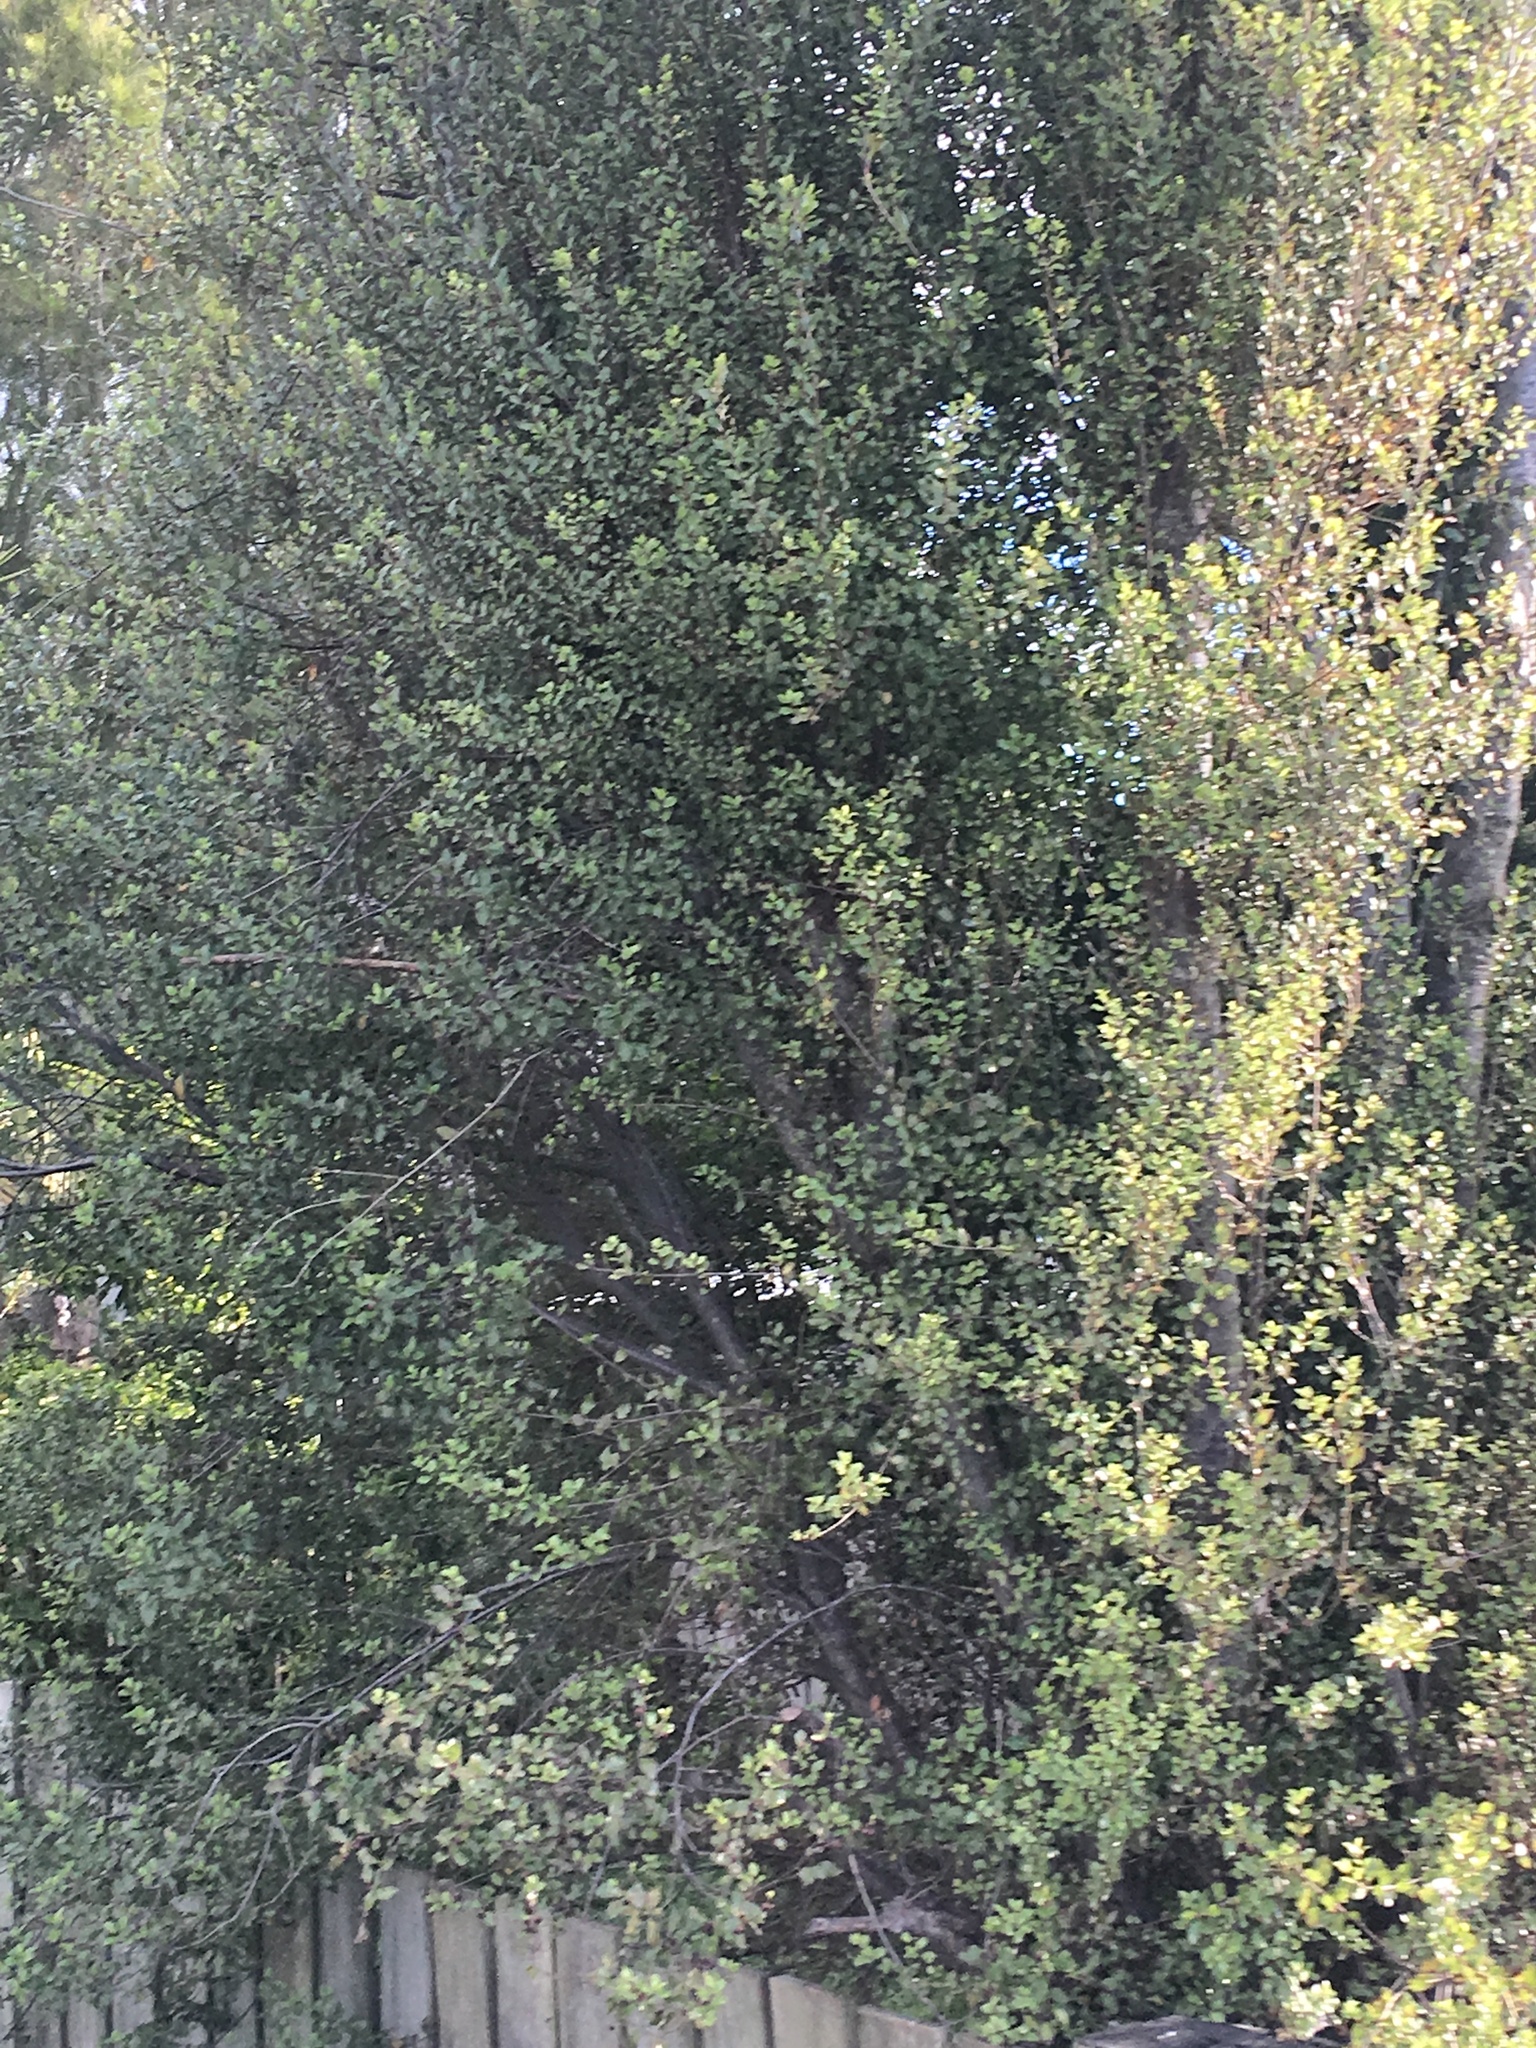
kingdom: Plantae
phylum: Tracheophyta
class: Magnoliopsida
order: Apiales
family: Pittosporaceae
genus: Pittosporum
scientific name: Pittosporum tenuifolium
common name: Kohuhu
